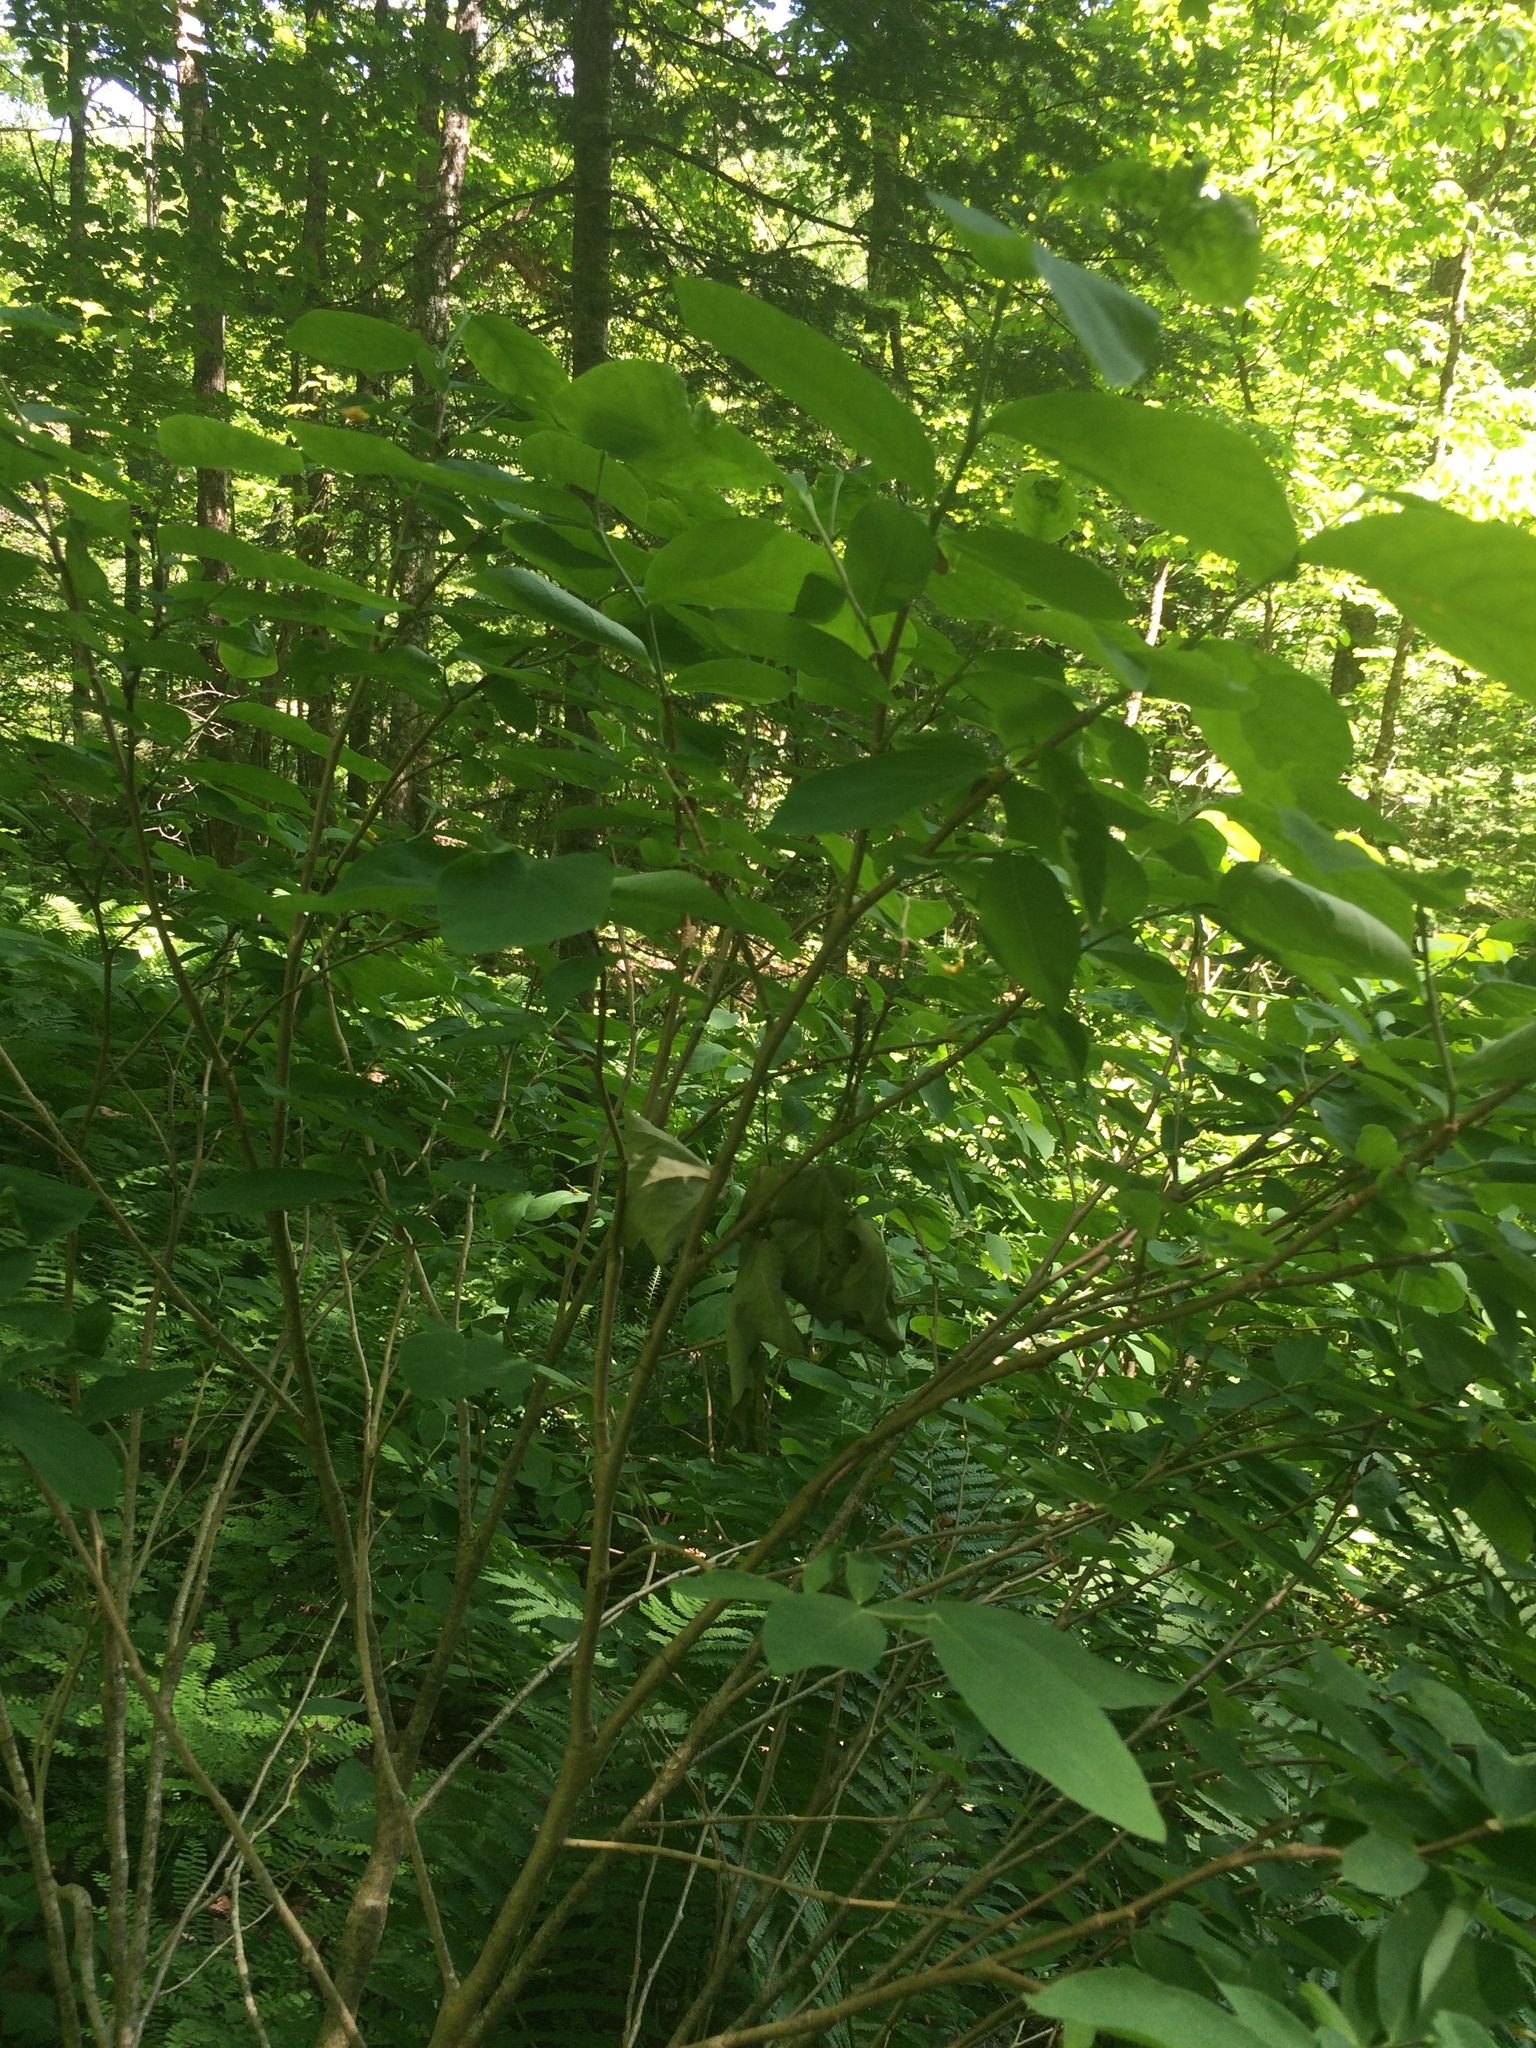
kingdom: Plantae
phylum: Tracheophyta
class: Magnoliopsida
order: Malvales
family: Thymelaeaceae
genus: Dirca
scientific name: Dirca palustris
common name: Leatherwood
